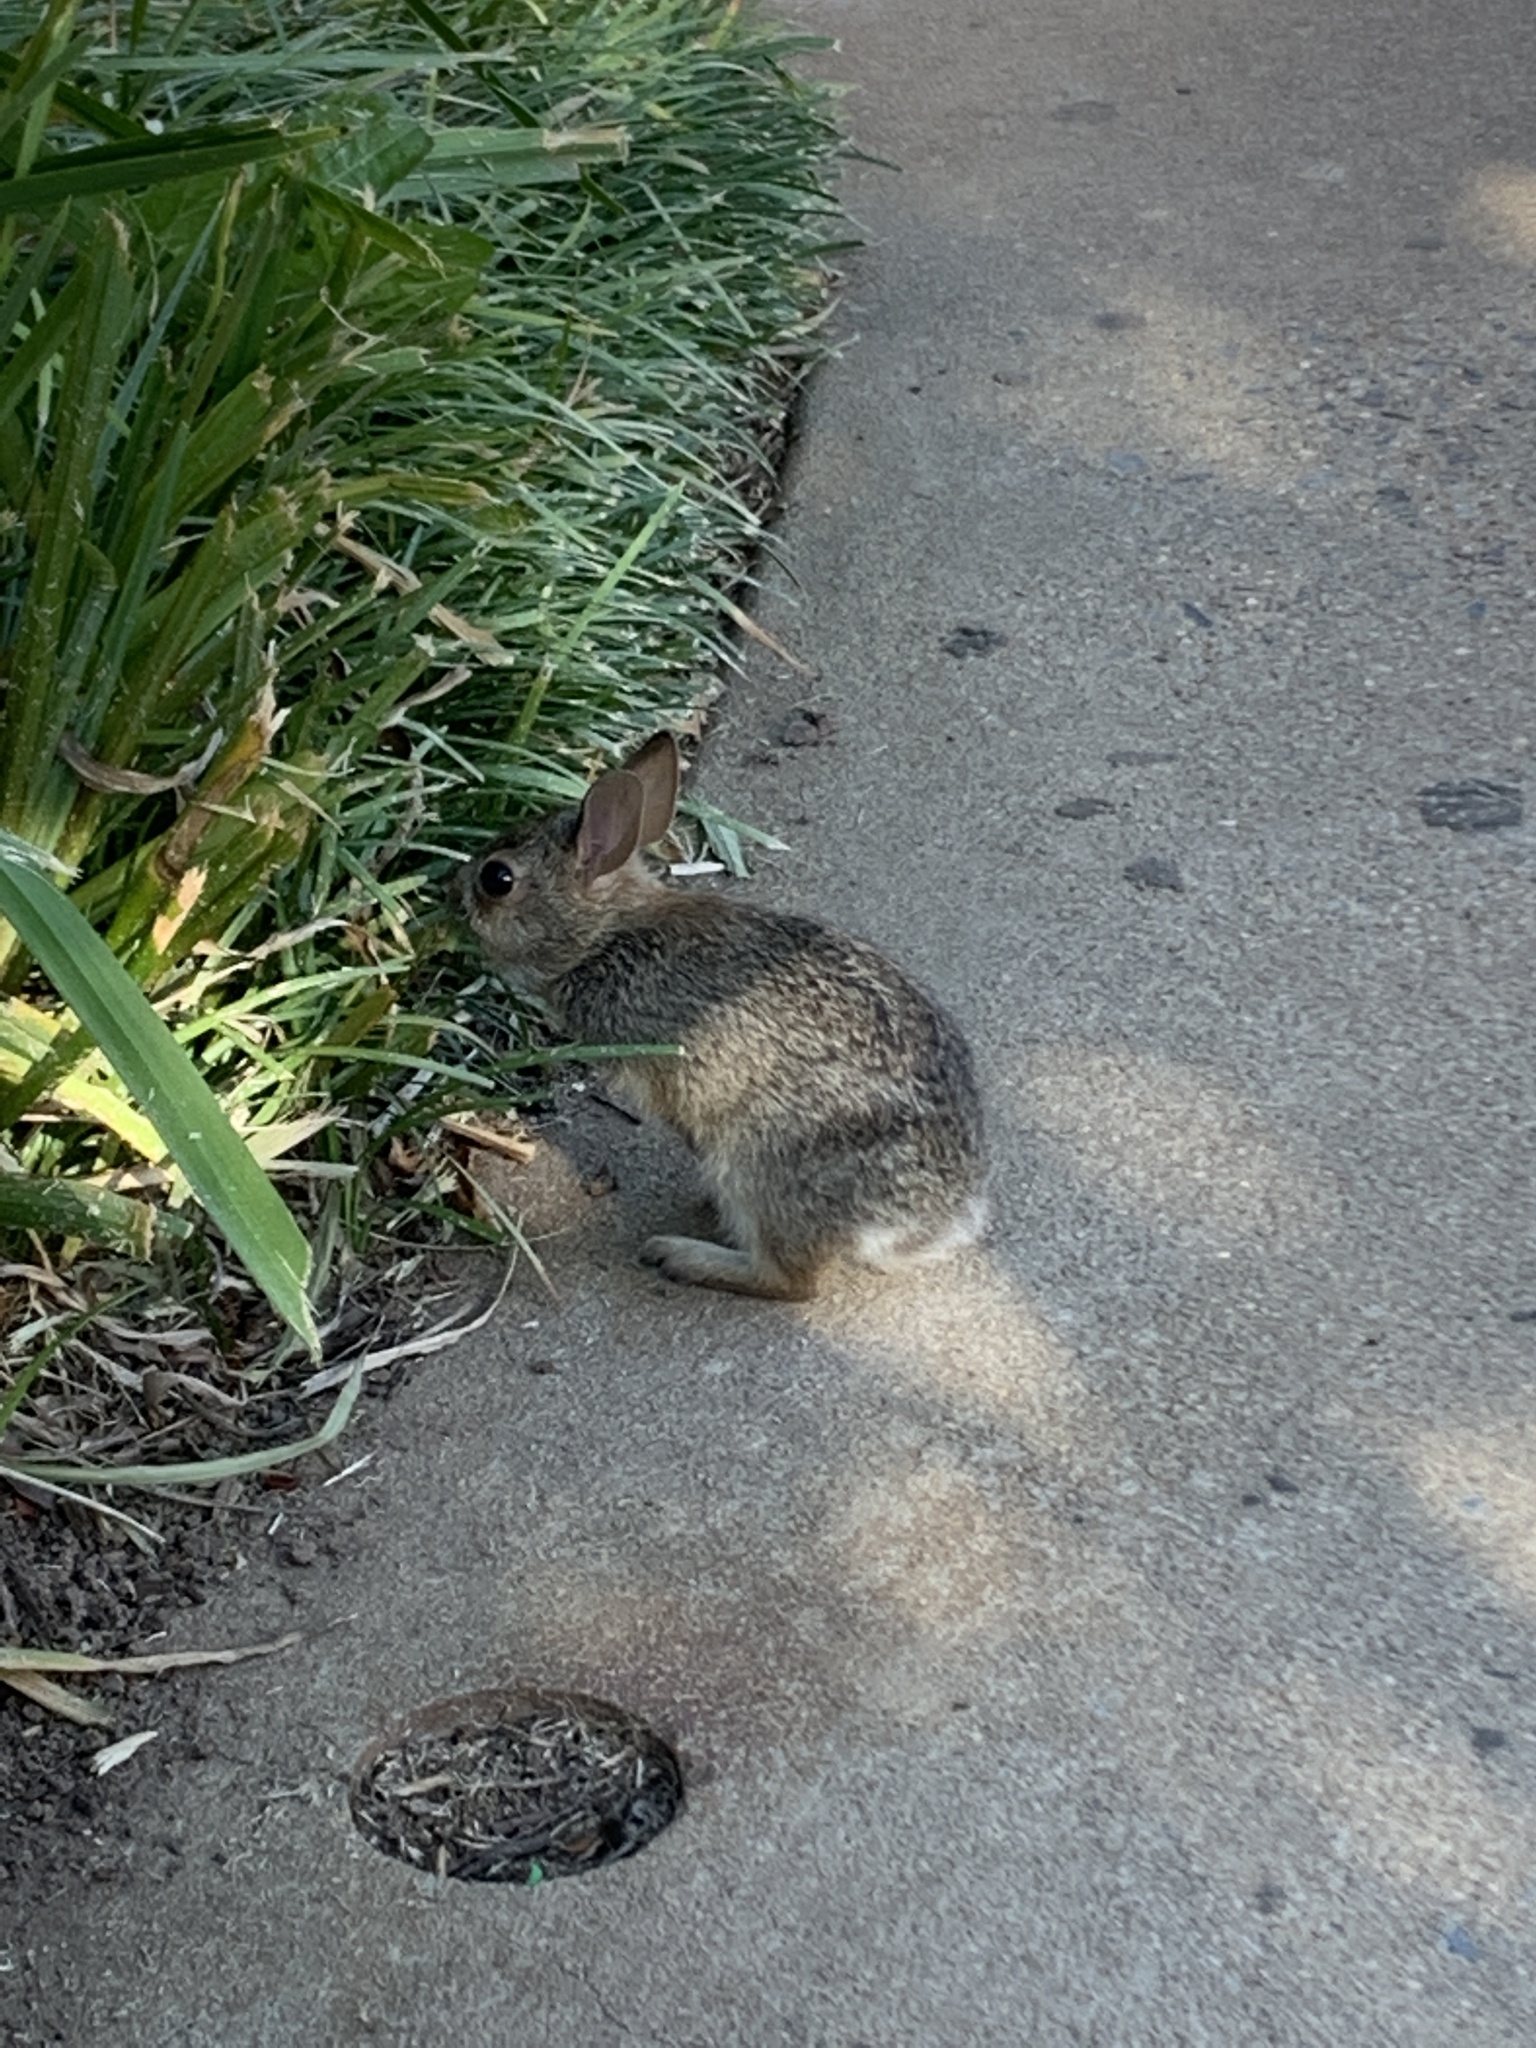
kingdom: Animalia
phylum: Chordata
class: Mammalia
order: Lagomorpha
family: Leporidae
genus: Sylvilagus
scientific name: Sylvilagus floridanus
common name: Eastern cottontail
